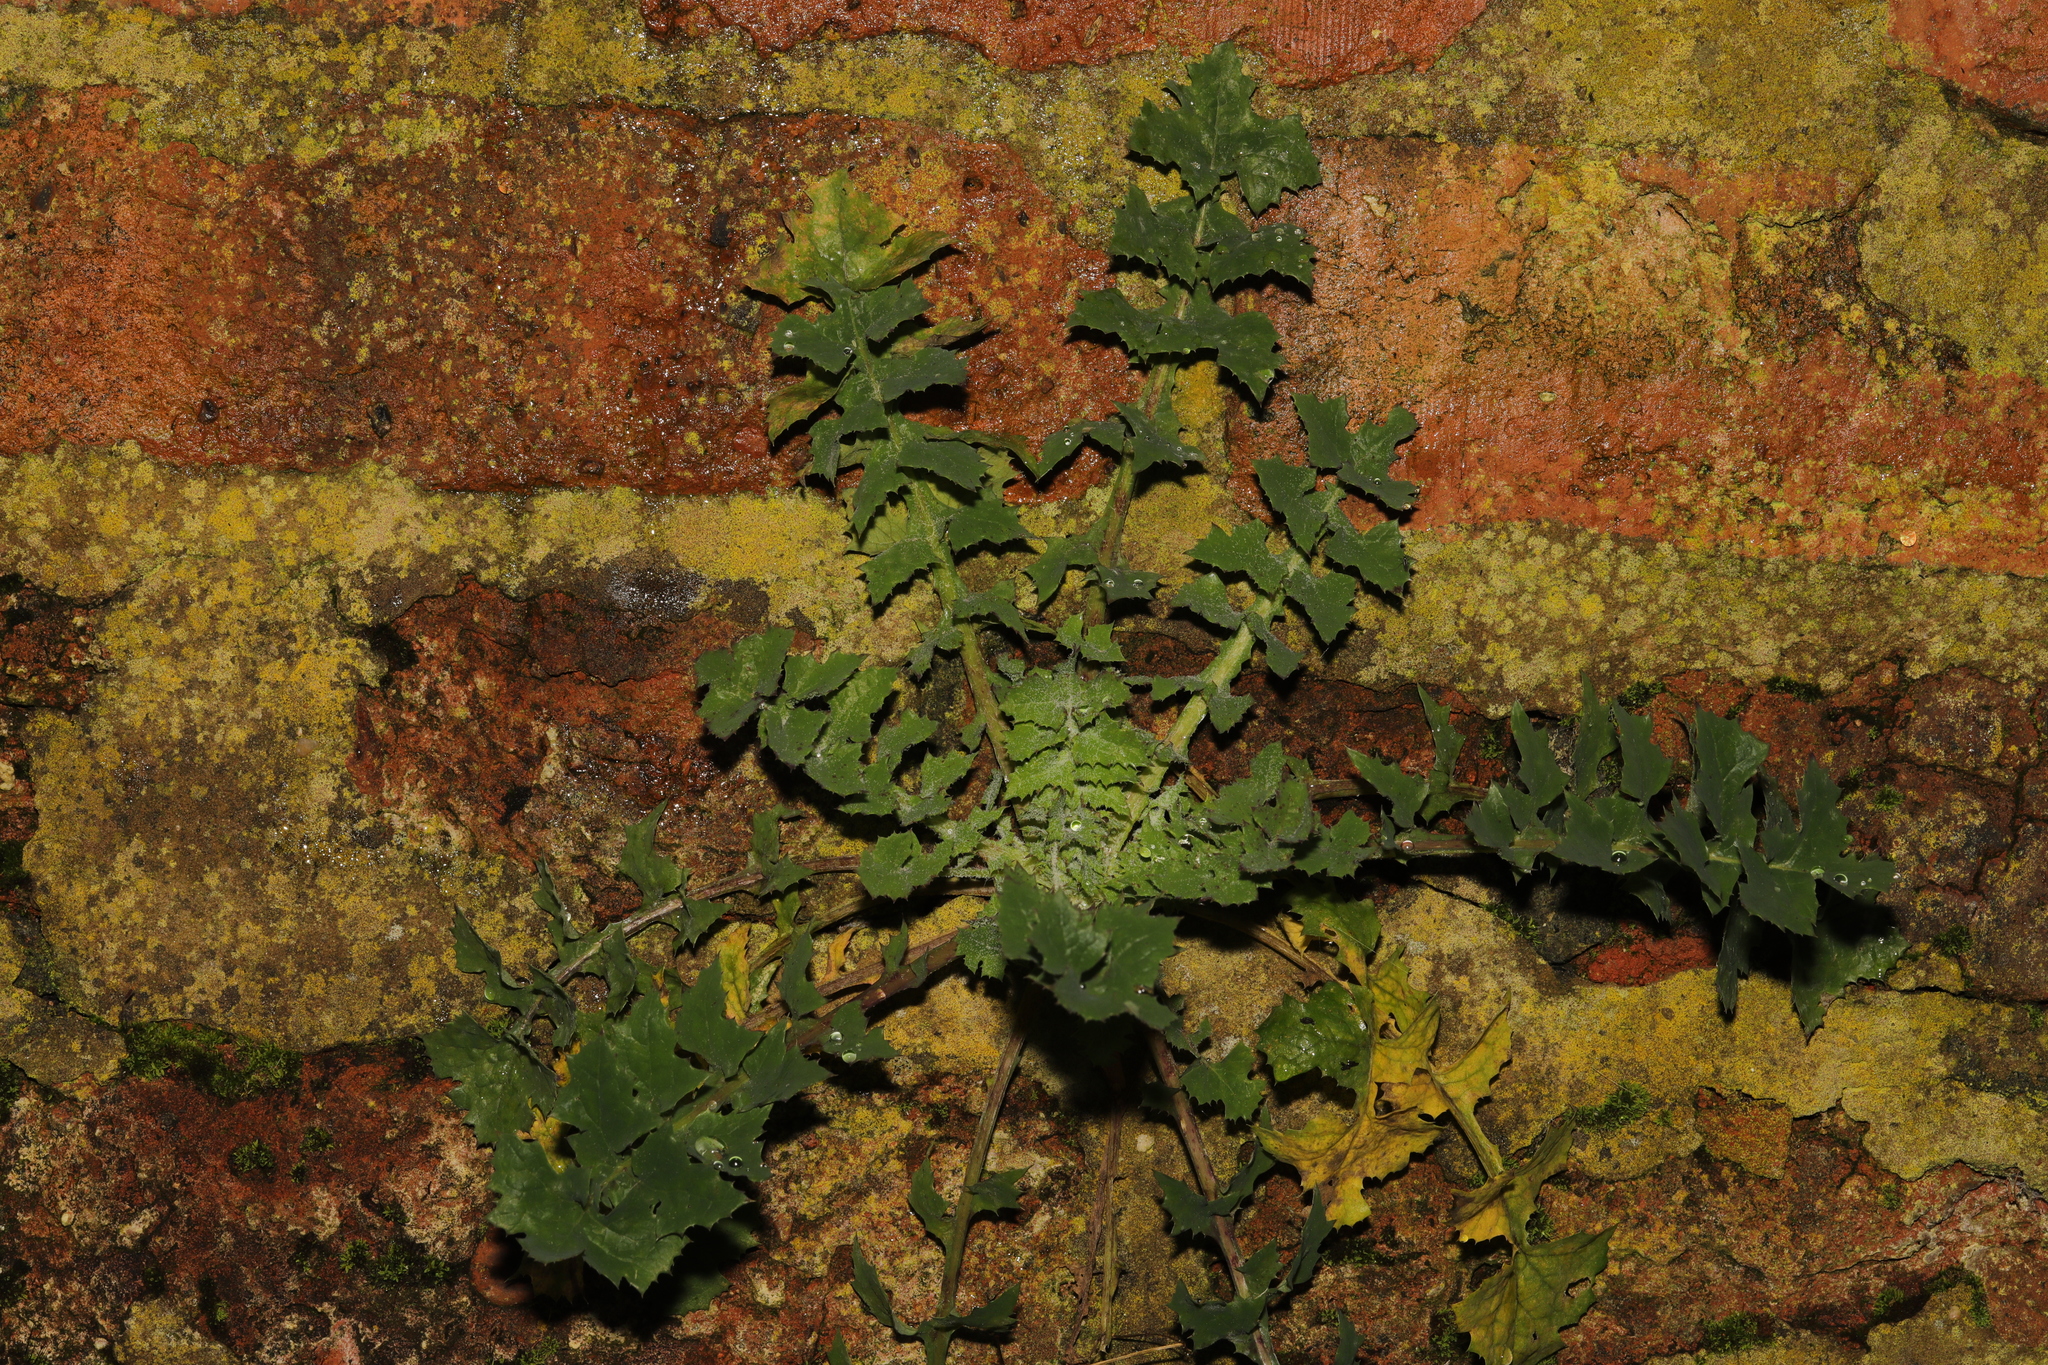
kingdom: Plantae
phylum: Tracheophyta
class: Magnoliopsida
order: Asterales
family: Asteraceae
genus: Sonchus
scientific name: Sonchus oleraceus
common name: Common sowthistle
